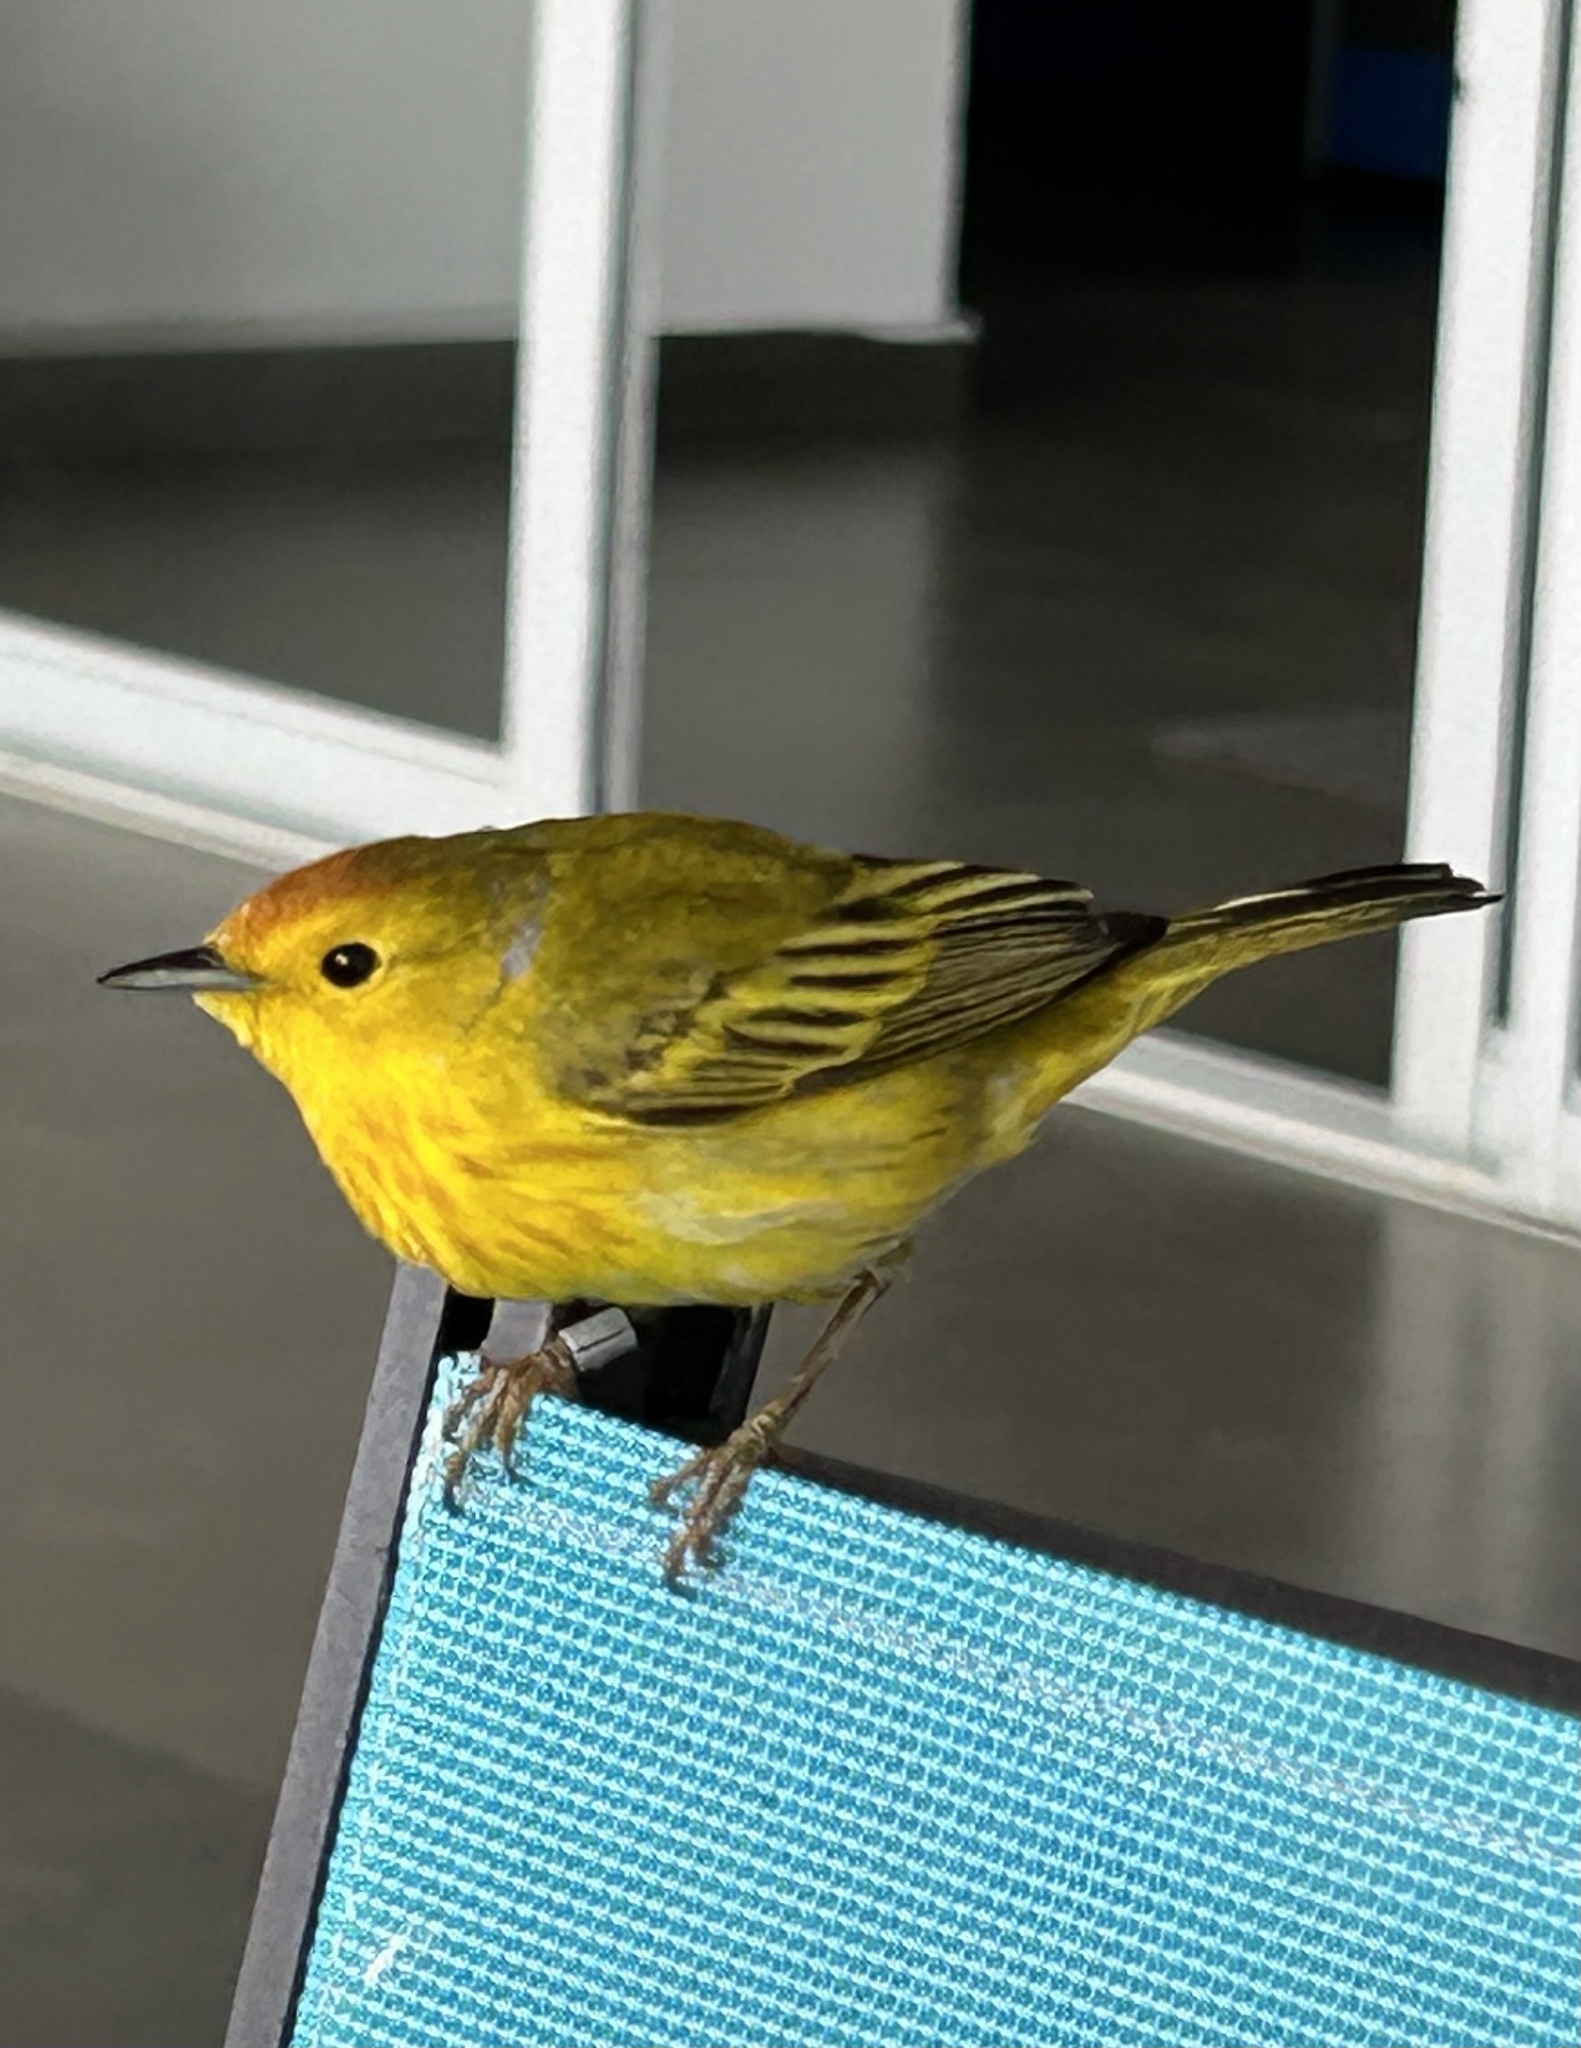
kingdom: Animalia
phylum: Chordata
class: Aves
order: Passeriformes
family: Parulidae
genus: Setophaga
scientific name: Setophaga petechia
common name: Yellow warbler
